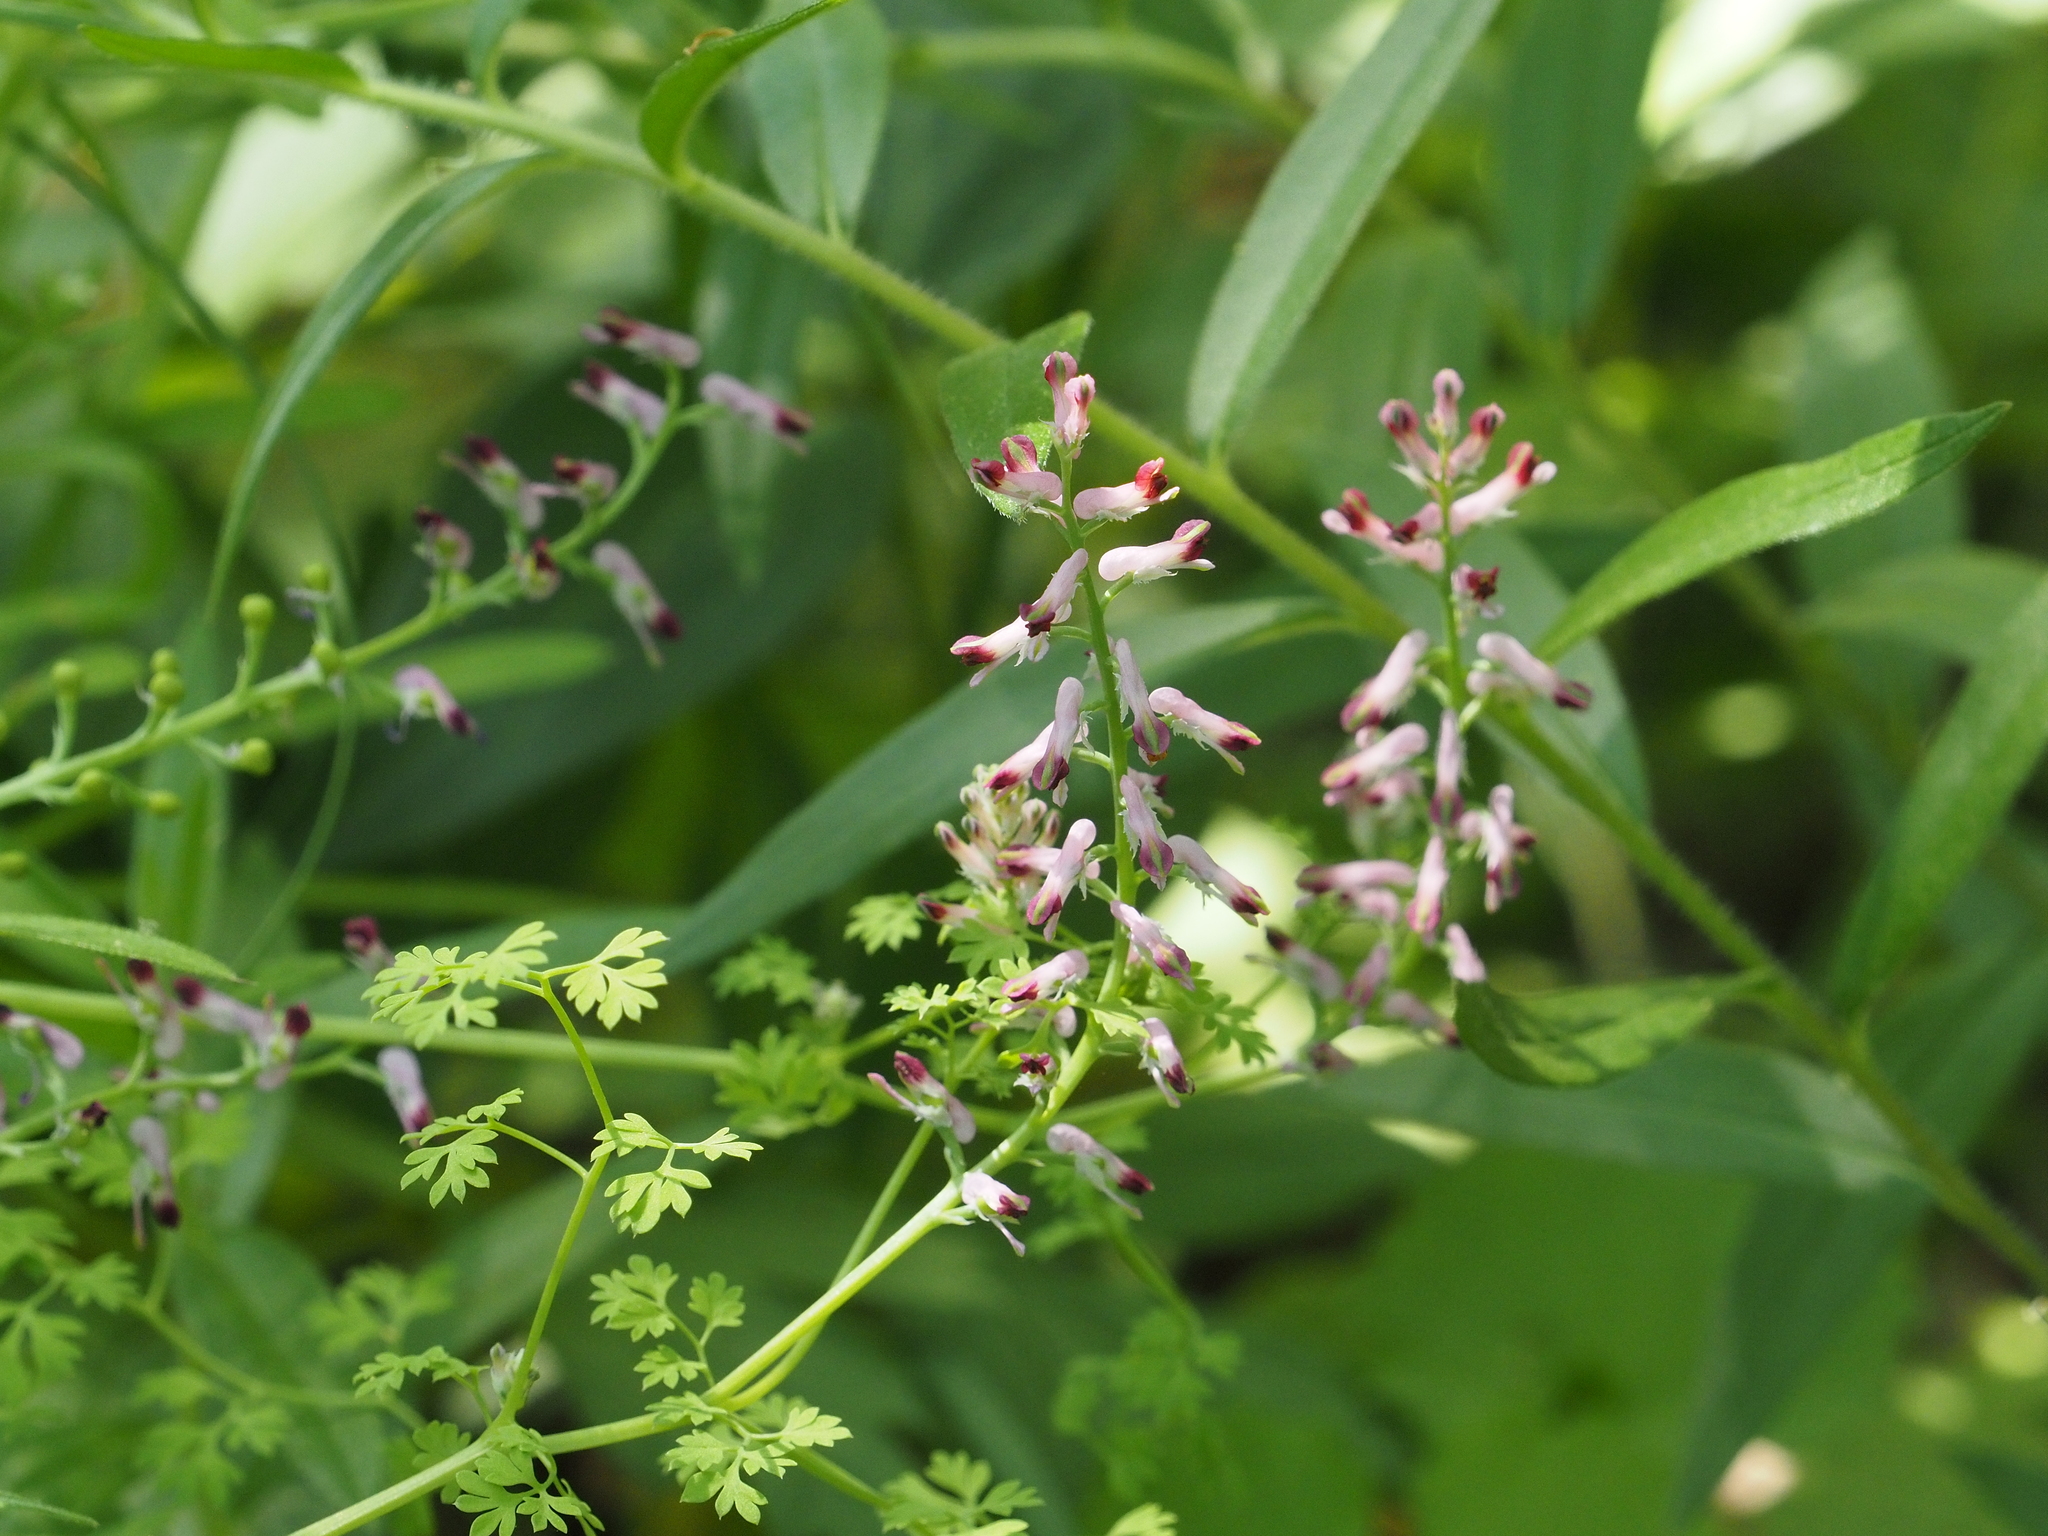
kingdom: Plantae
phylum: Tracheophyta
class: Magnoliopsida
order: Ranunculales
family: Papaveraceae
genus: Fumaria
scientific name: Fumaria officinalis
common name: Common fumitory
